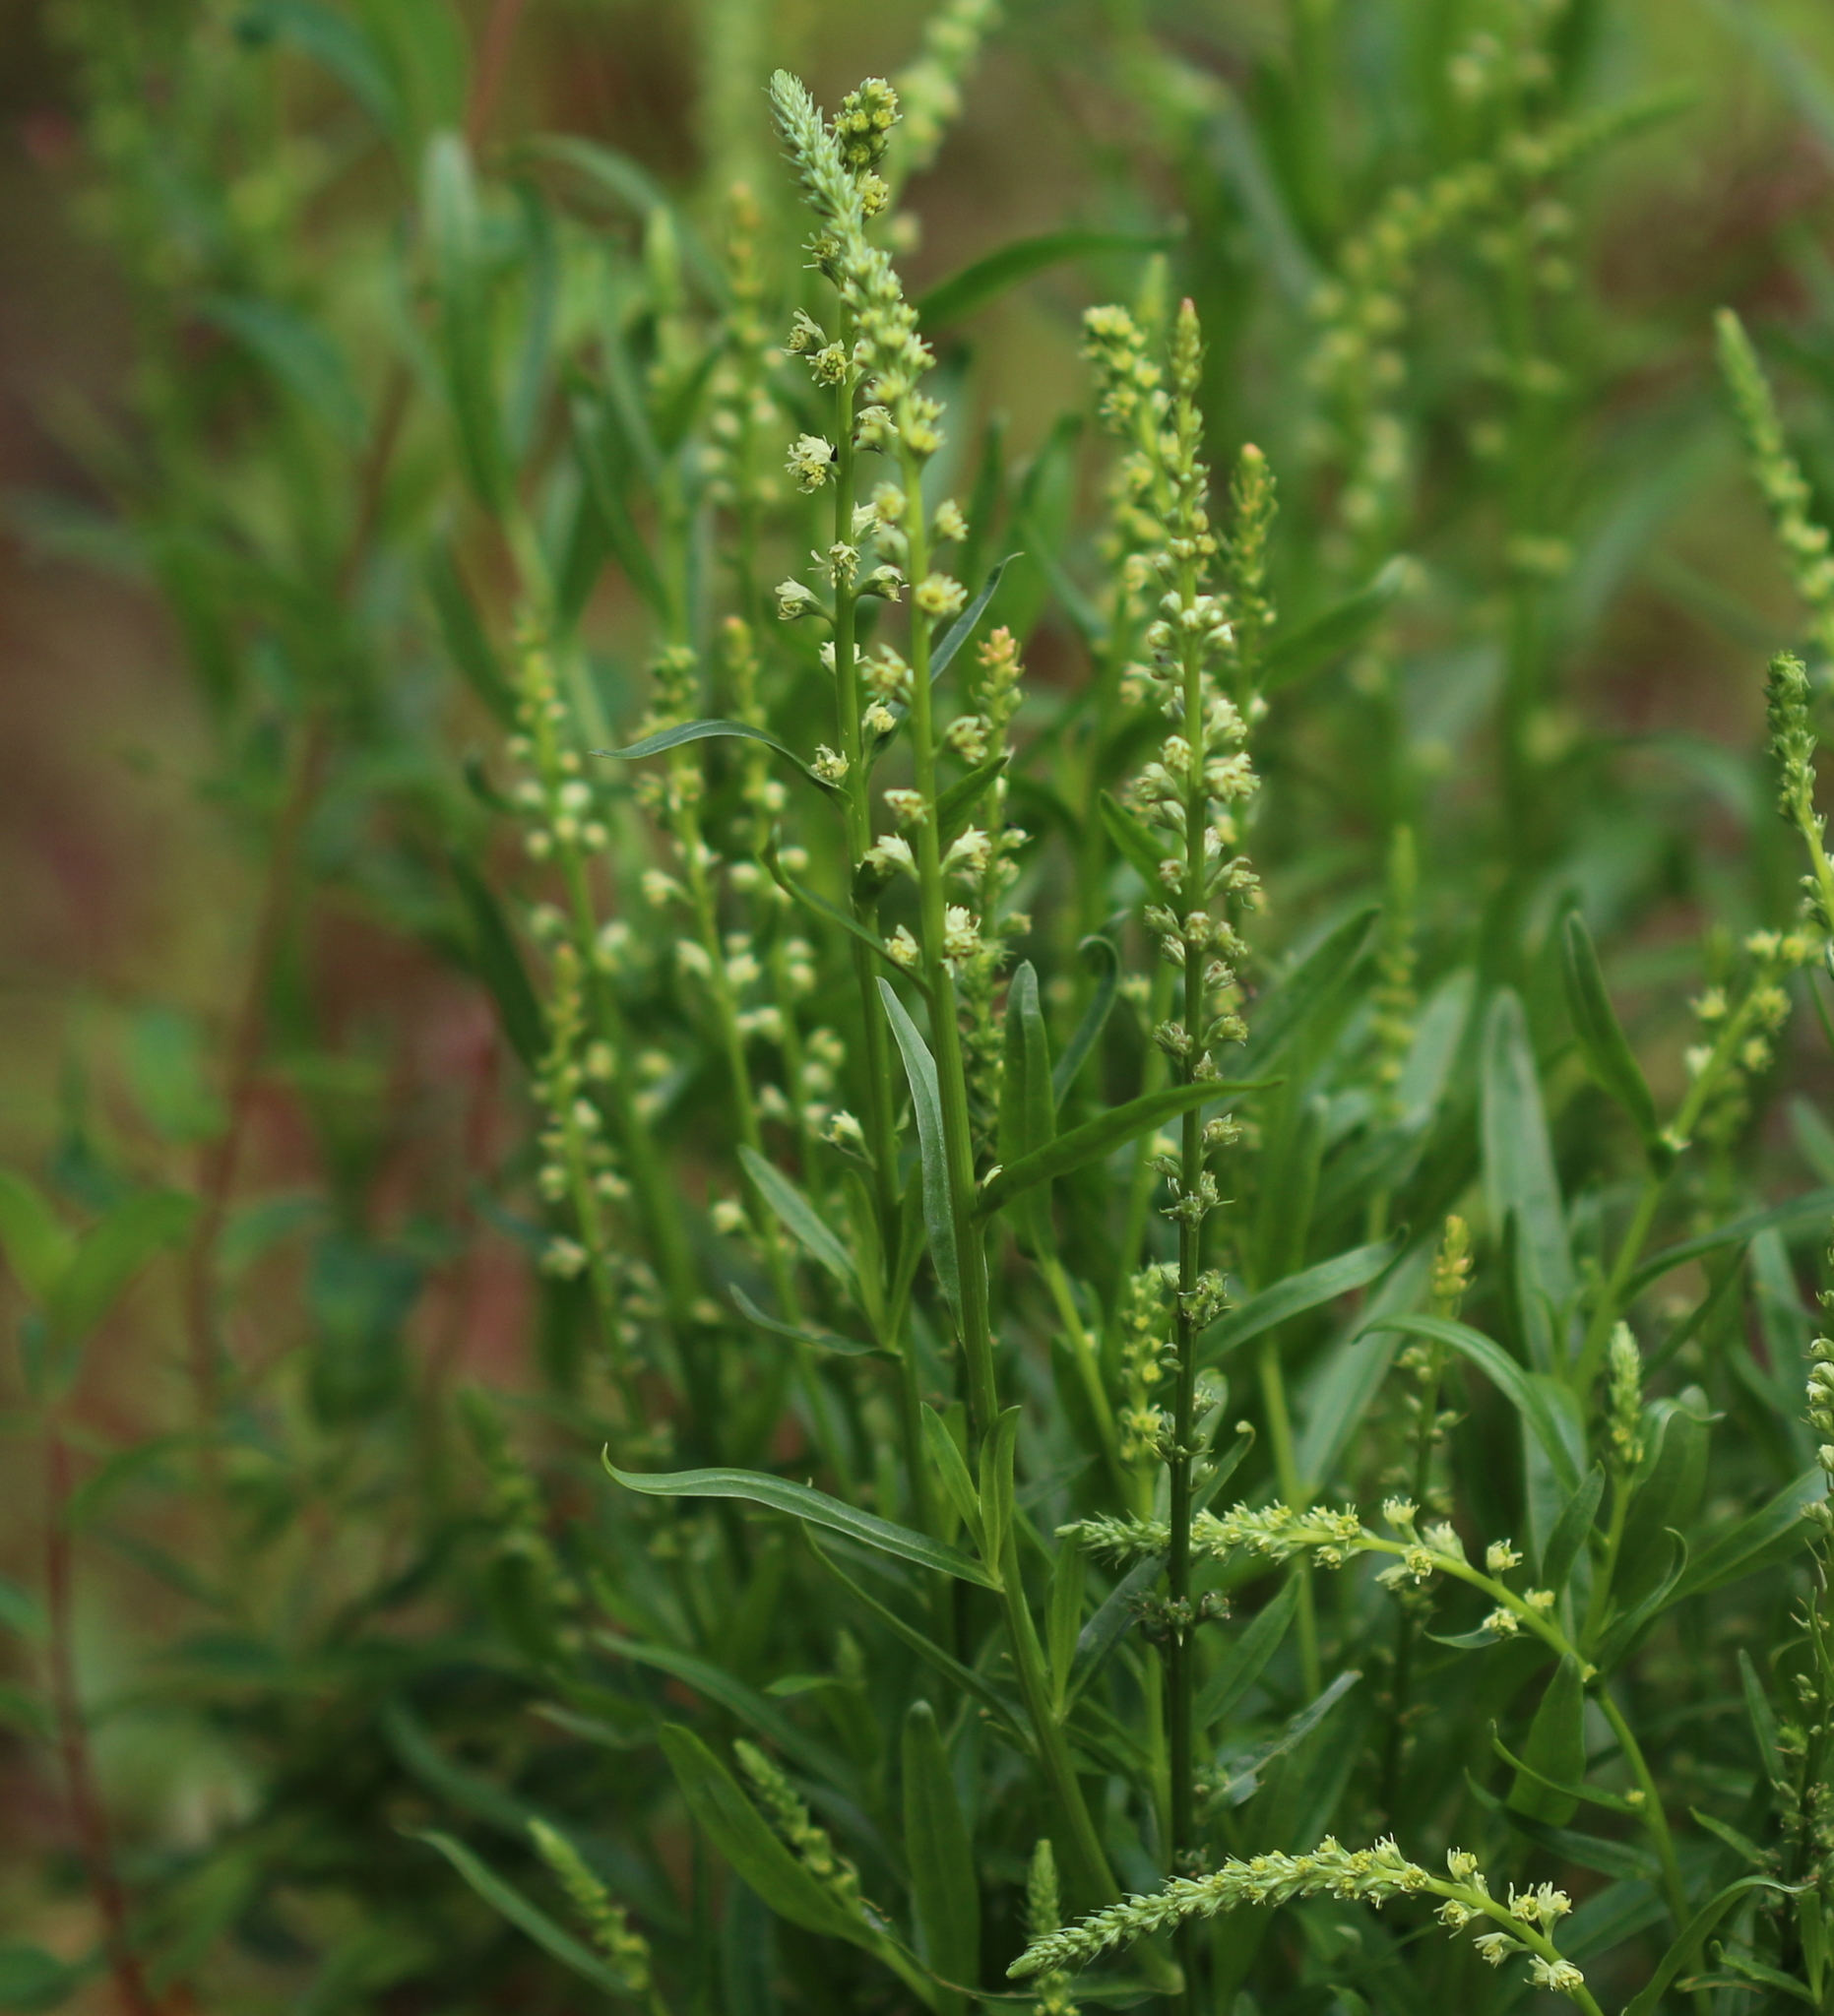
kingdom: Plantae
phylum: Tracheophyta
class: Magnoliopsida
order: Brassicales
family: Resedaceae
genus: Reseda
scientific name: Reseda luteola
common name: Weld
